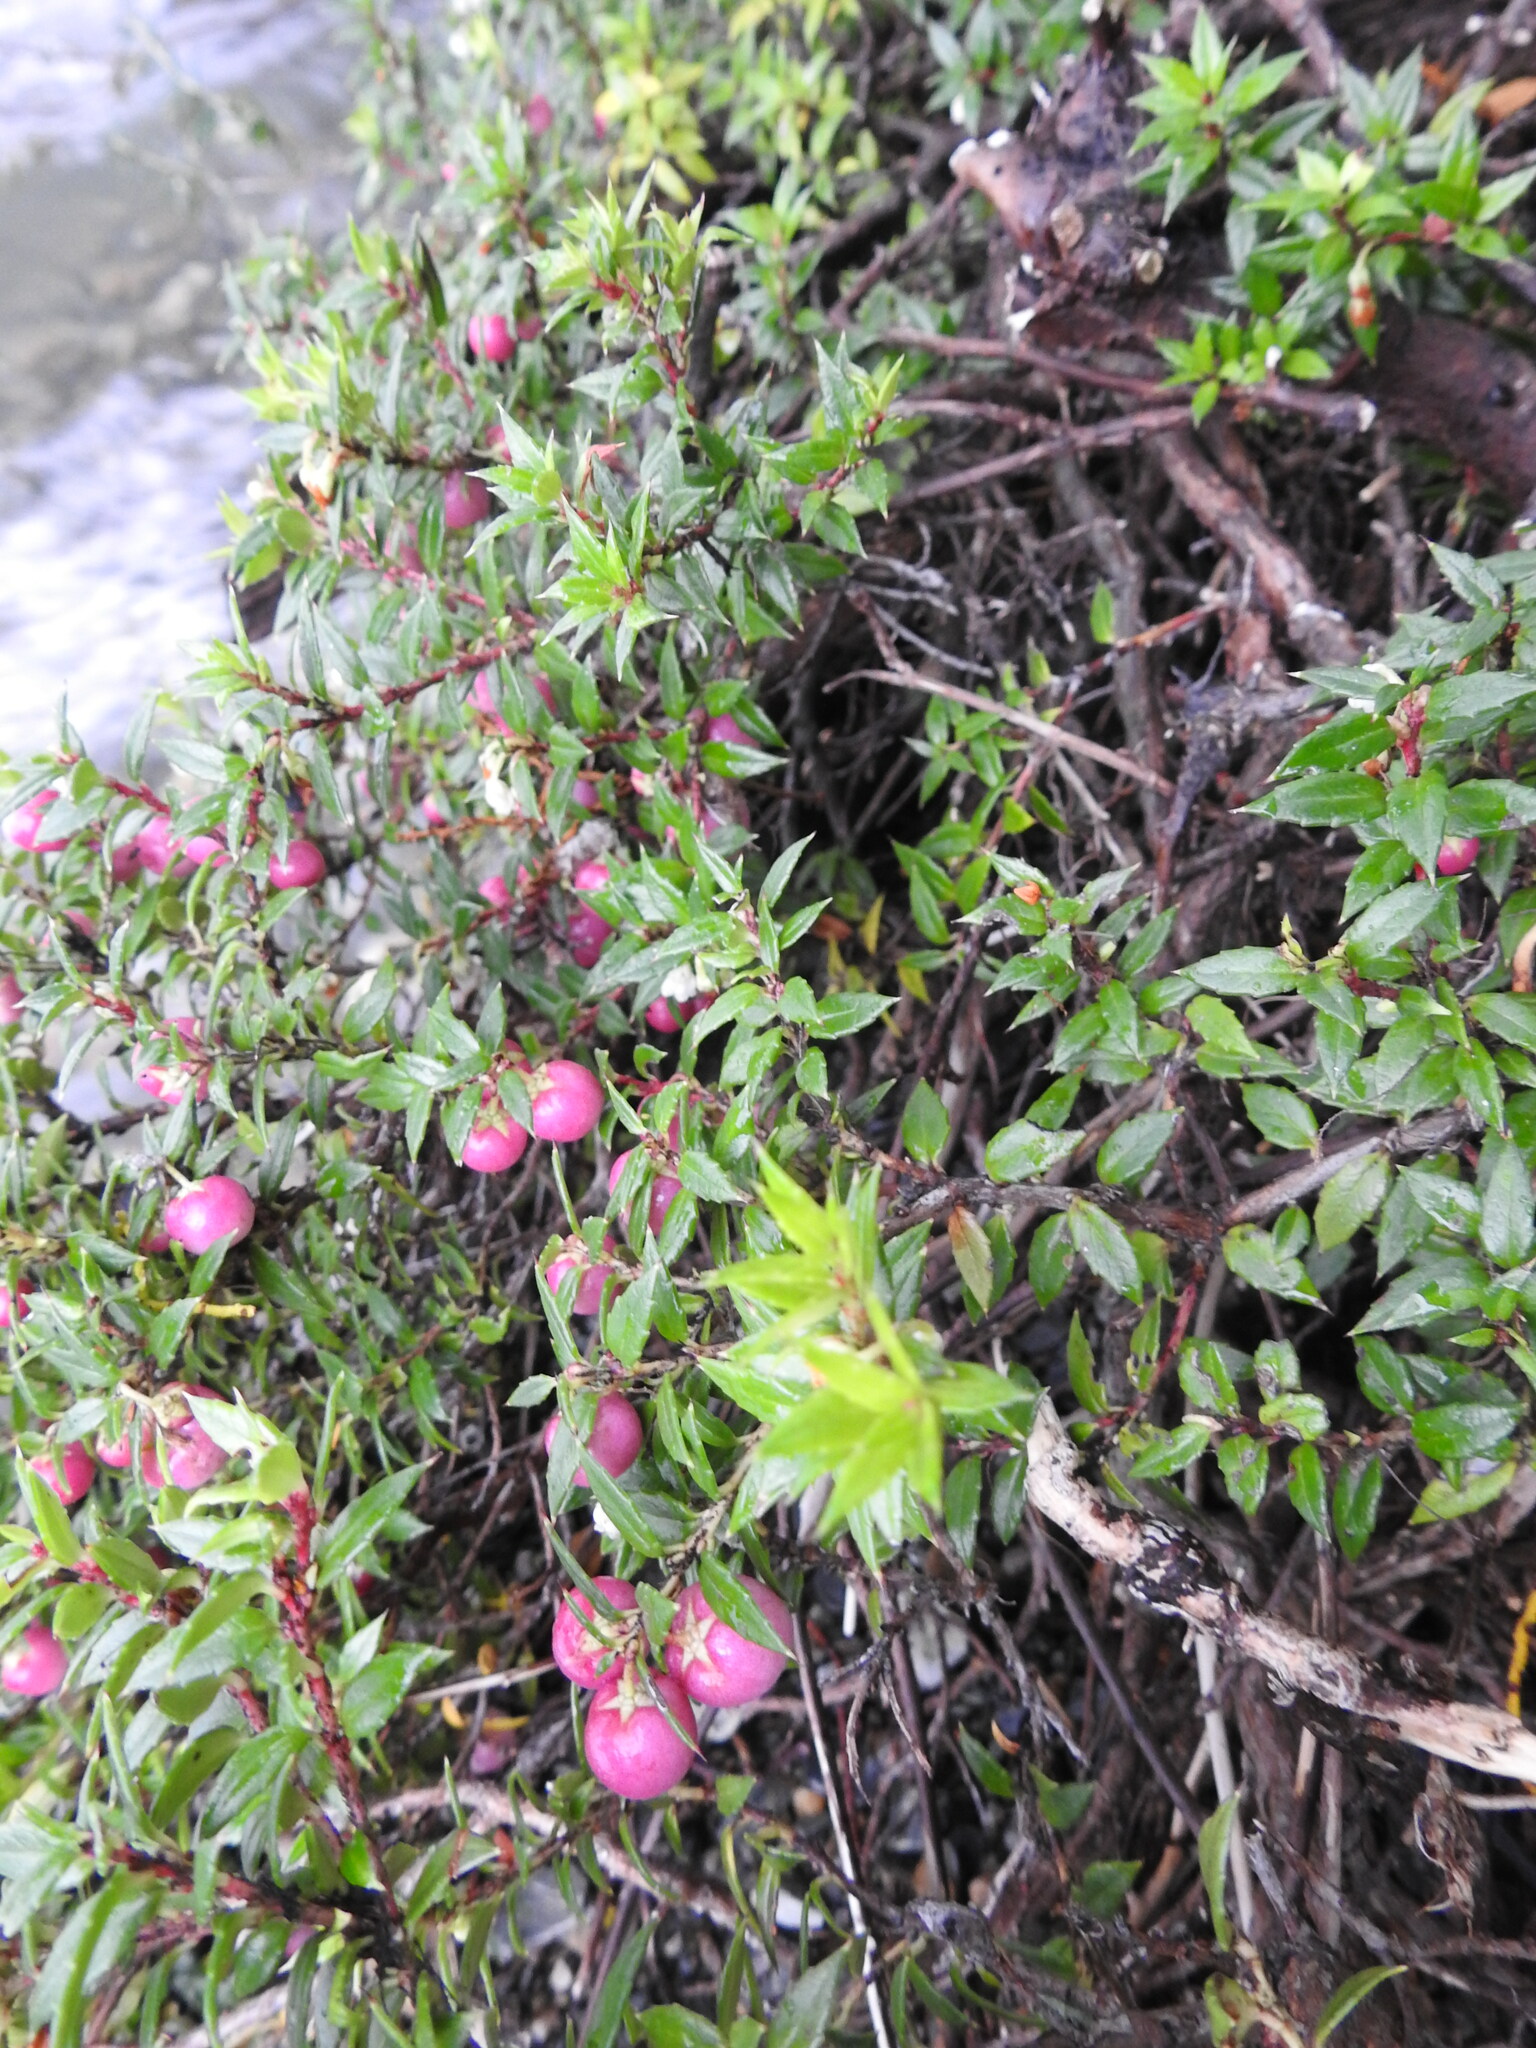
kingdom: Plantae
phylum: Tracheophyta
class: Magnoliopsida
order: Ericales
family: Ericaceae
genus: Gaultheria
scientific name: Gaultheria mucronata
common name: Prickly heath
